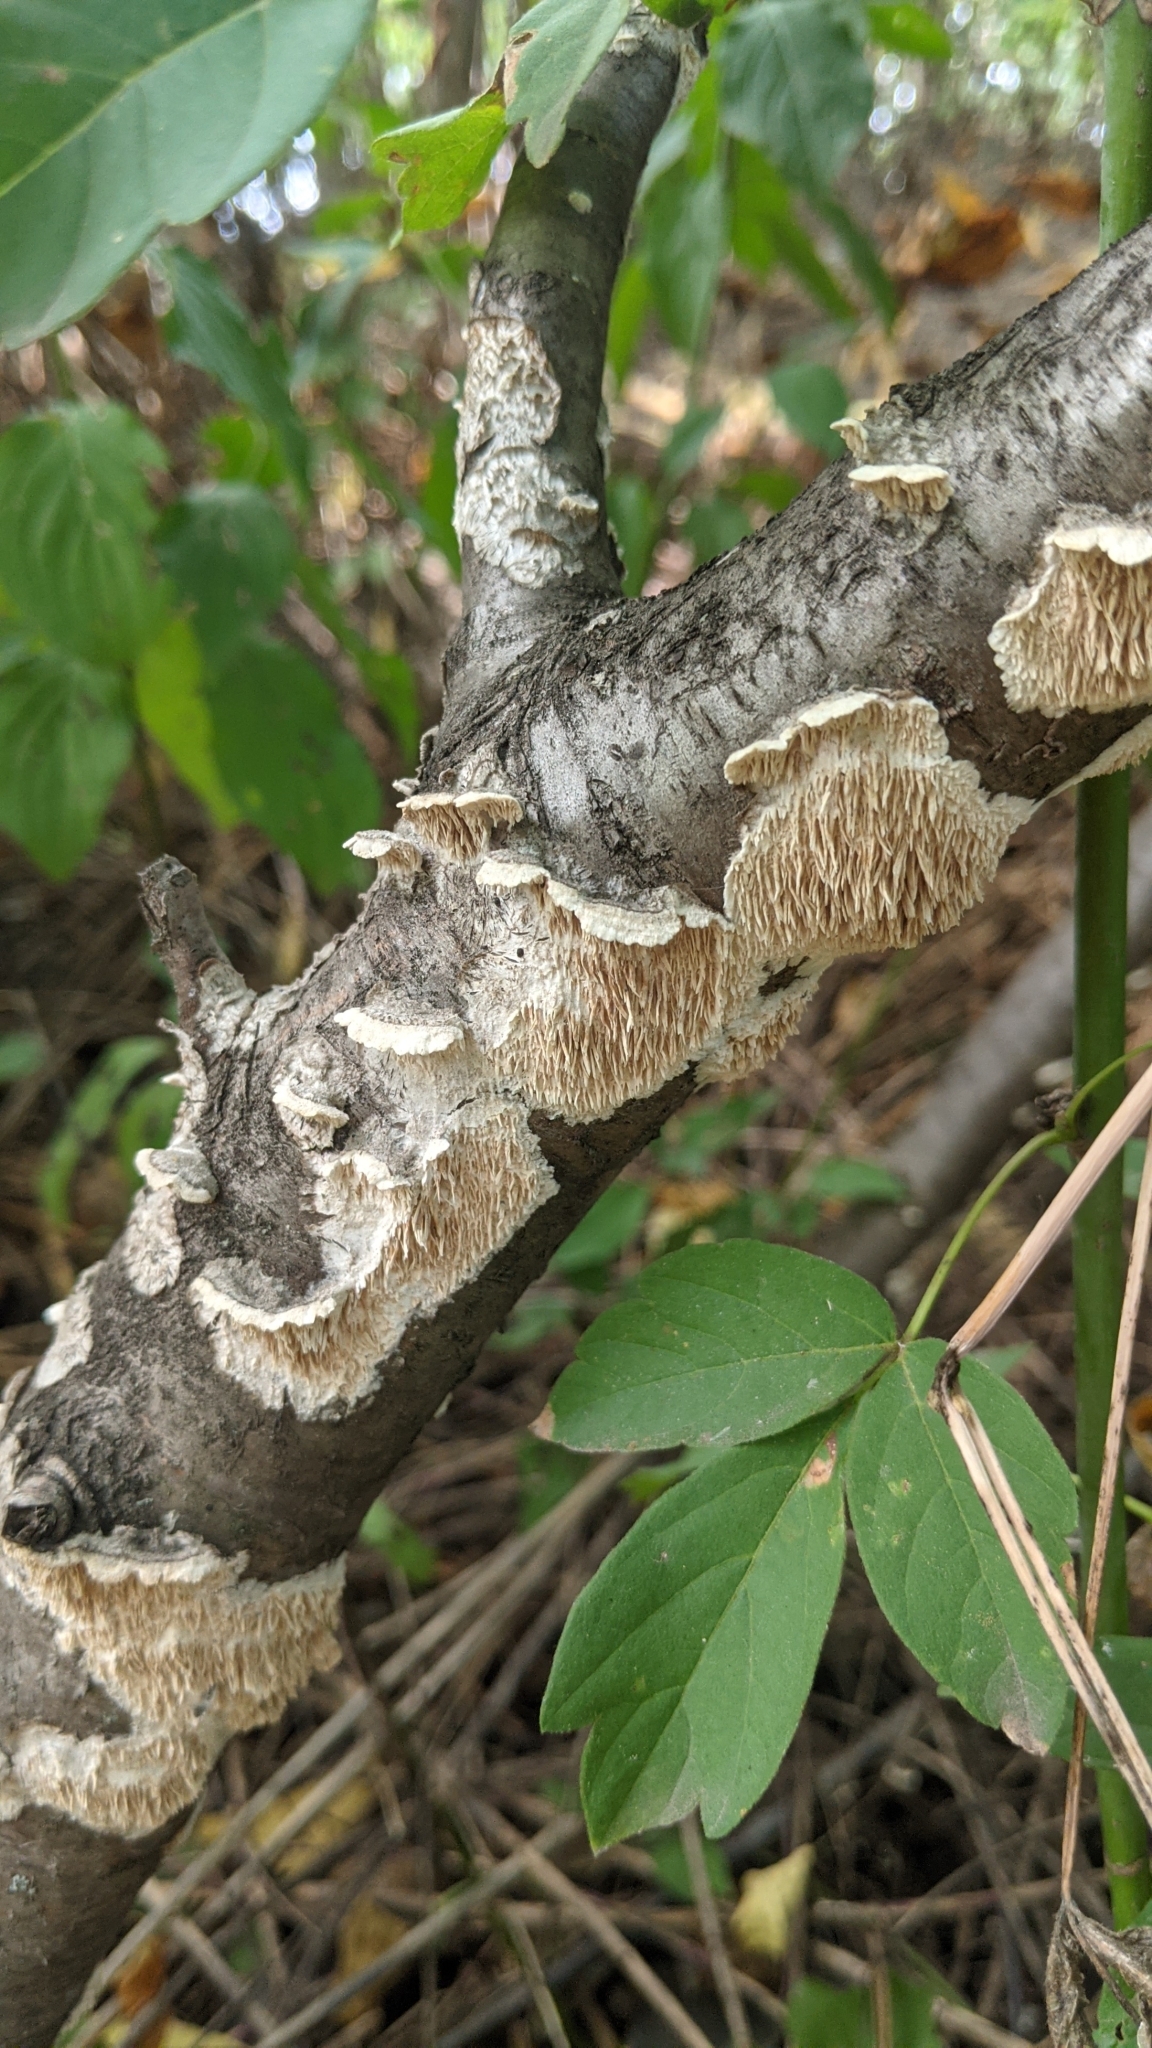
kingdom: Fungi
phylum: Basidiomycota
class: Agaricomycetes
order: Polyporales
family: Irpicaceae
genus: Irpex
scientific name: Irpex lacteus
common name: Milk-white toothed polypore
